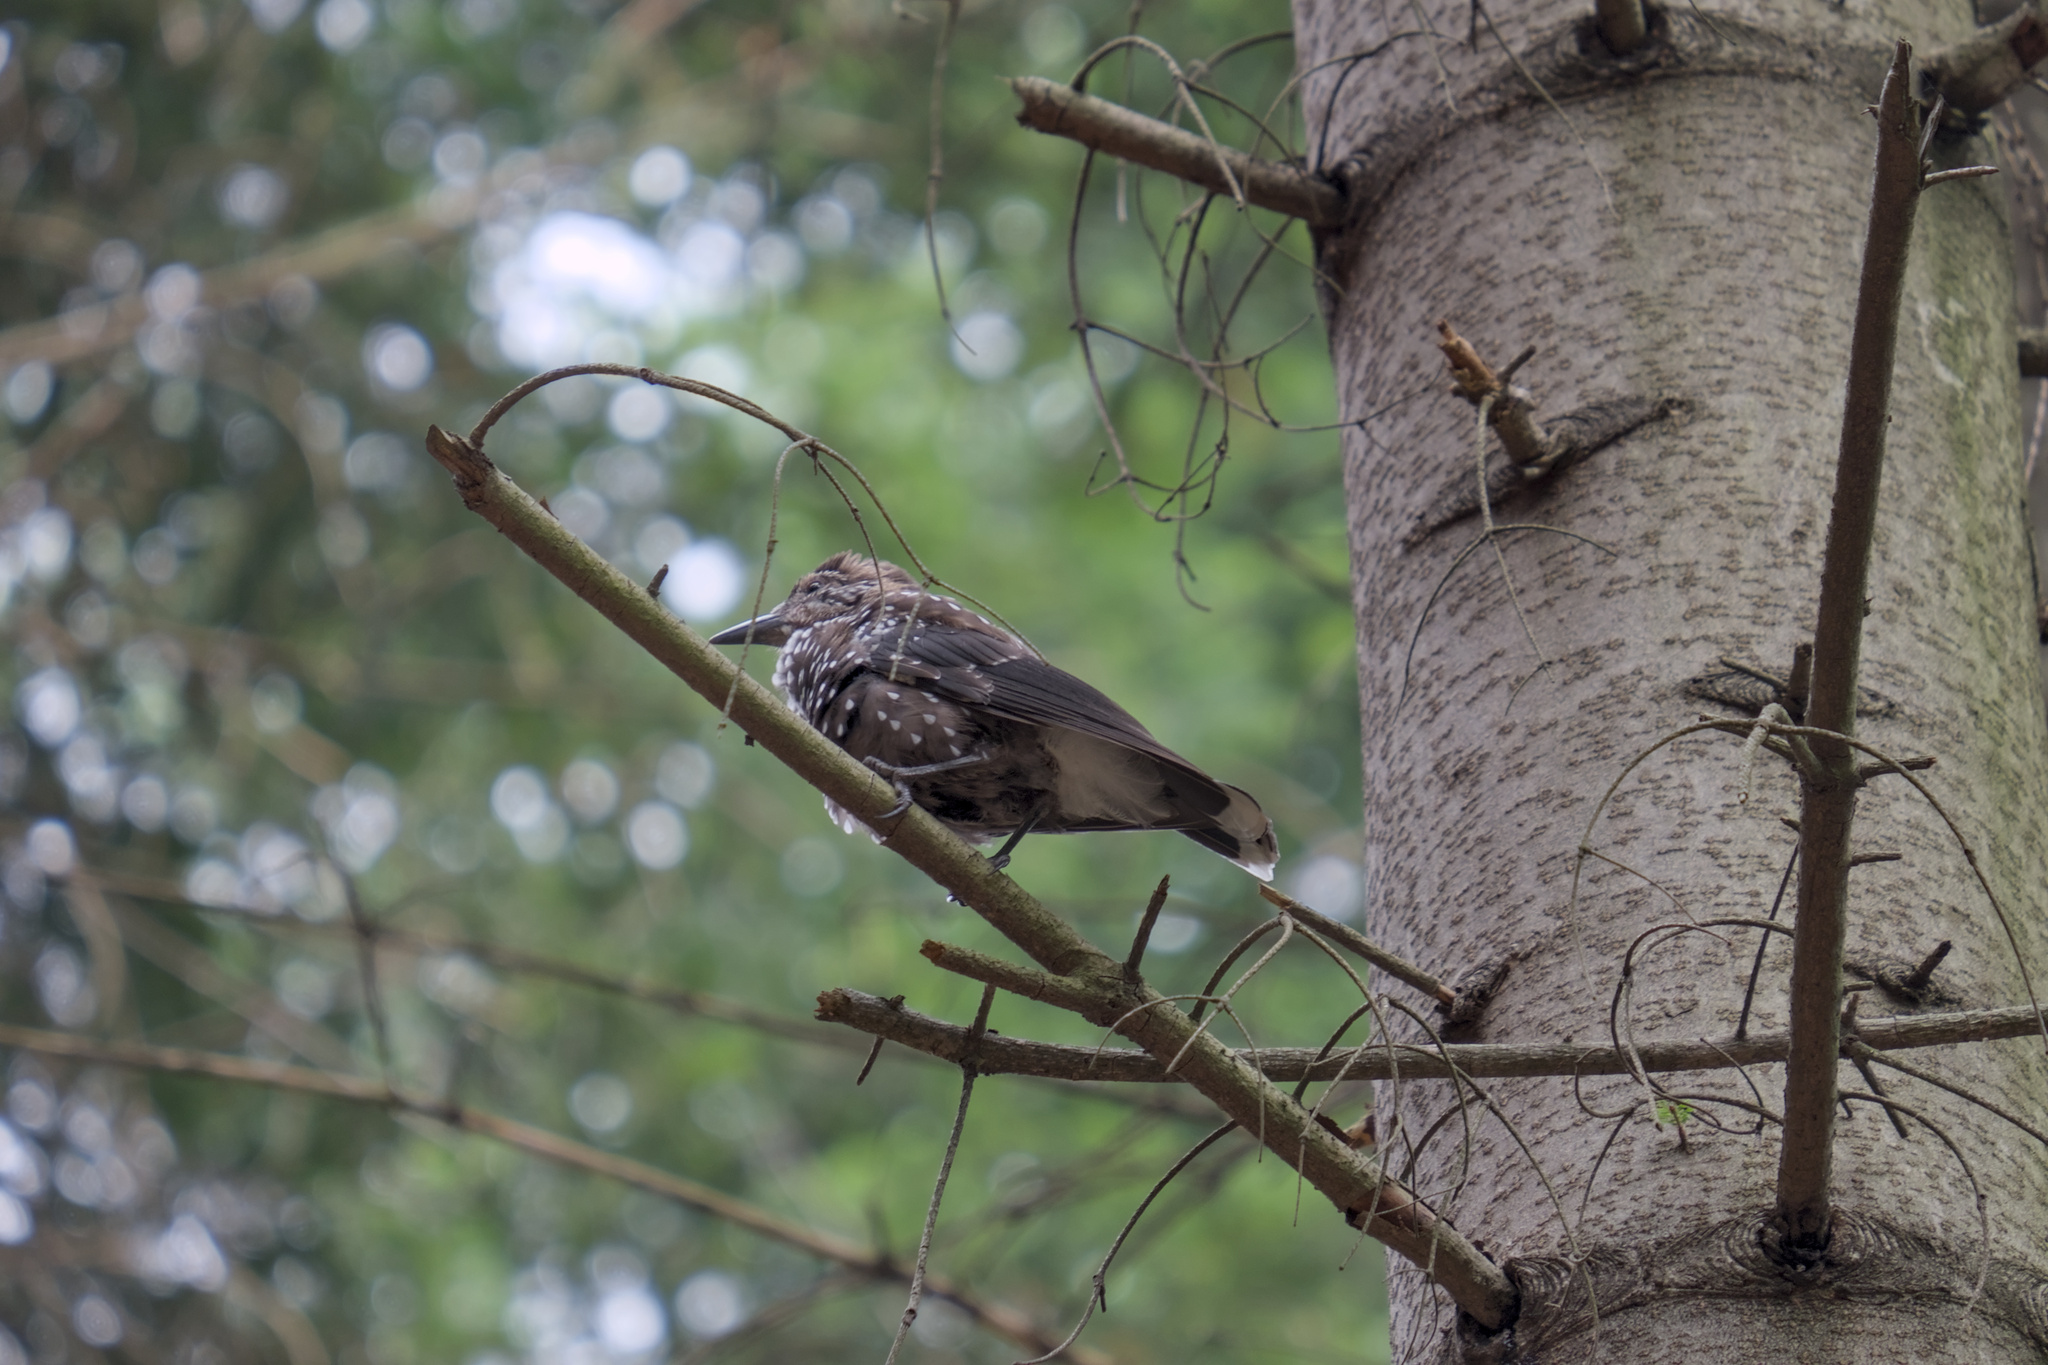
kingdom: Animalia
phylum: Chordata
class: Aves
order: Passeriformes
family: Corvidae
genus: Nucifraga
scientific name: Nucifraga caryocatactes
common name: Spotted nutcracker
